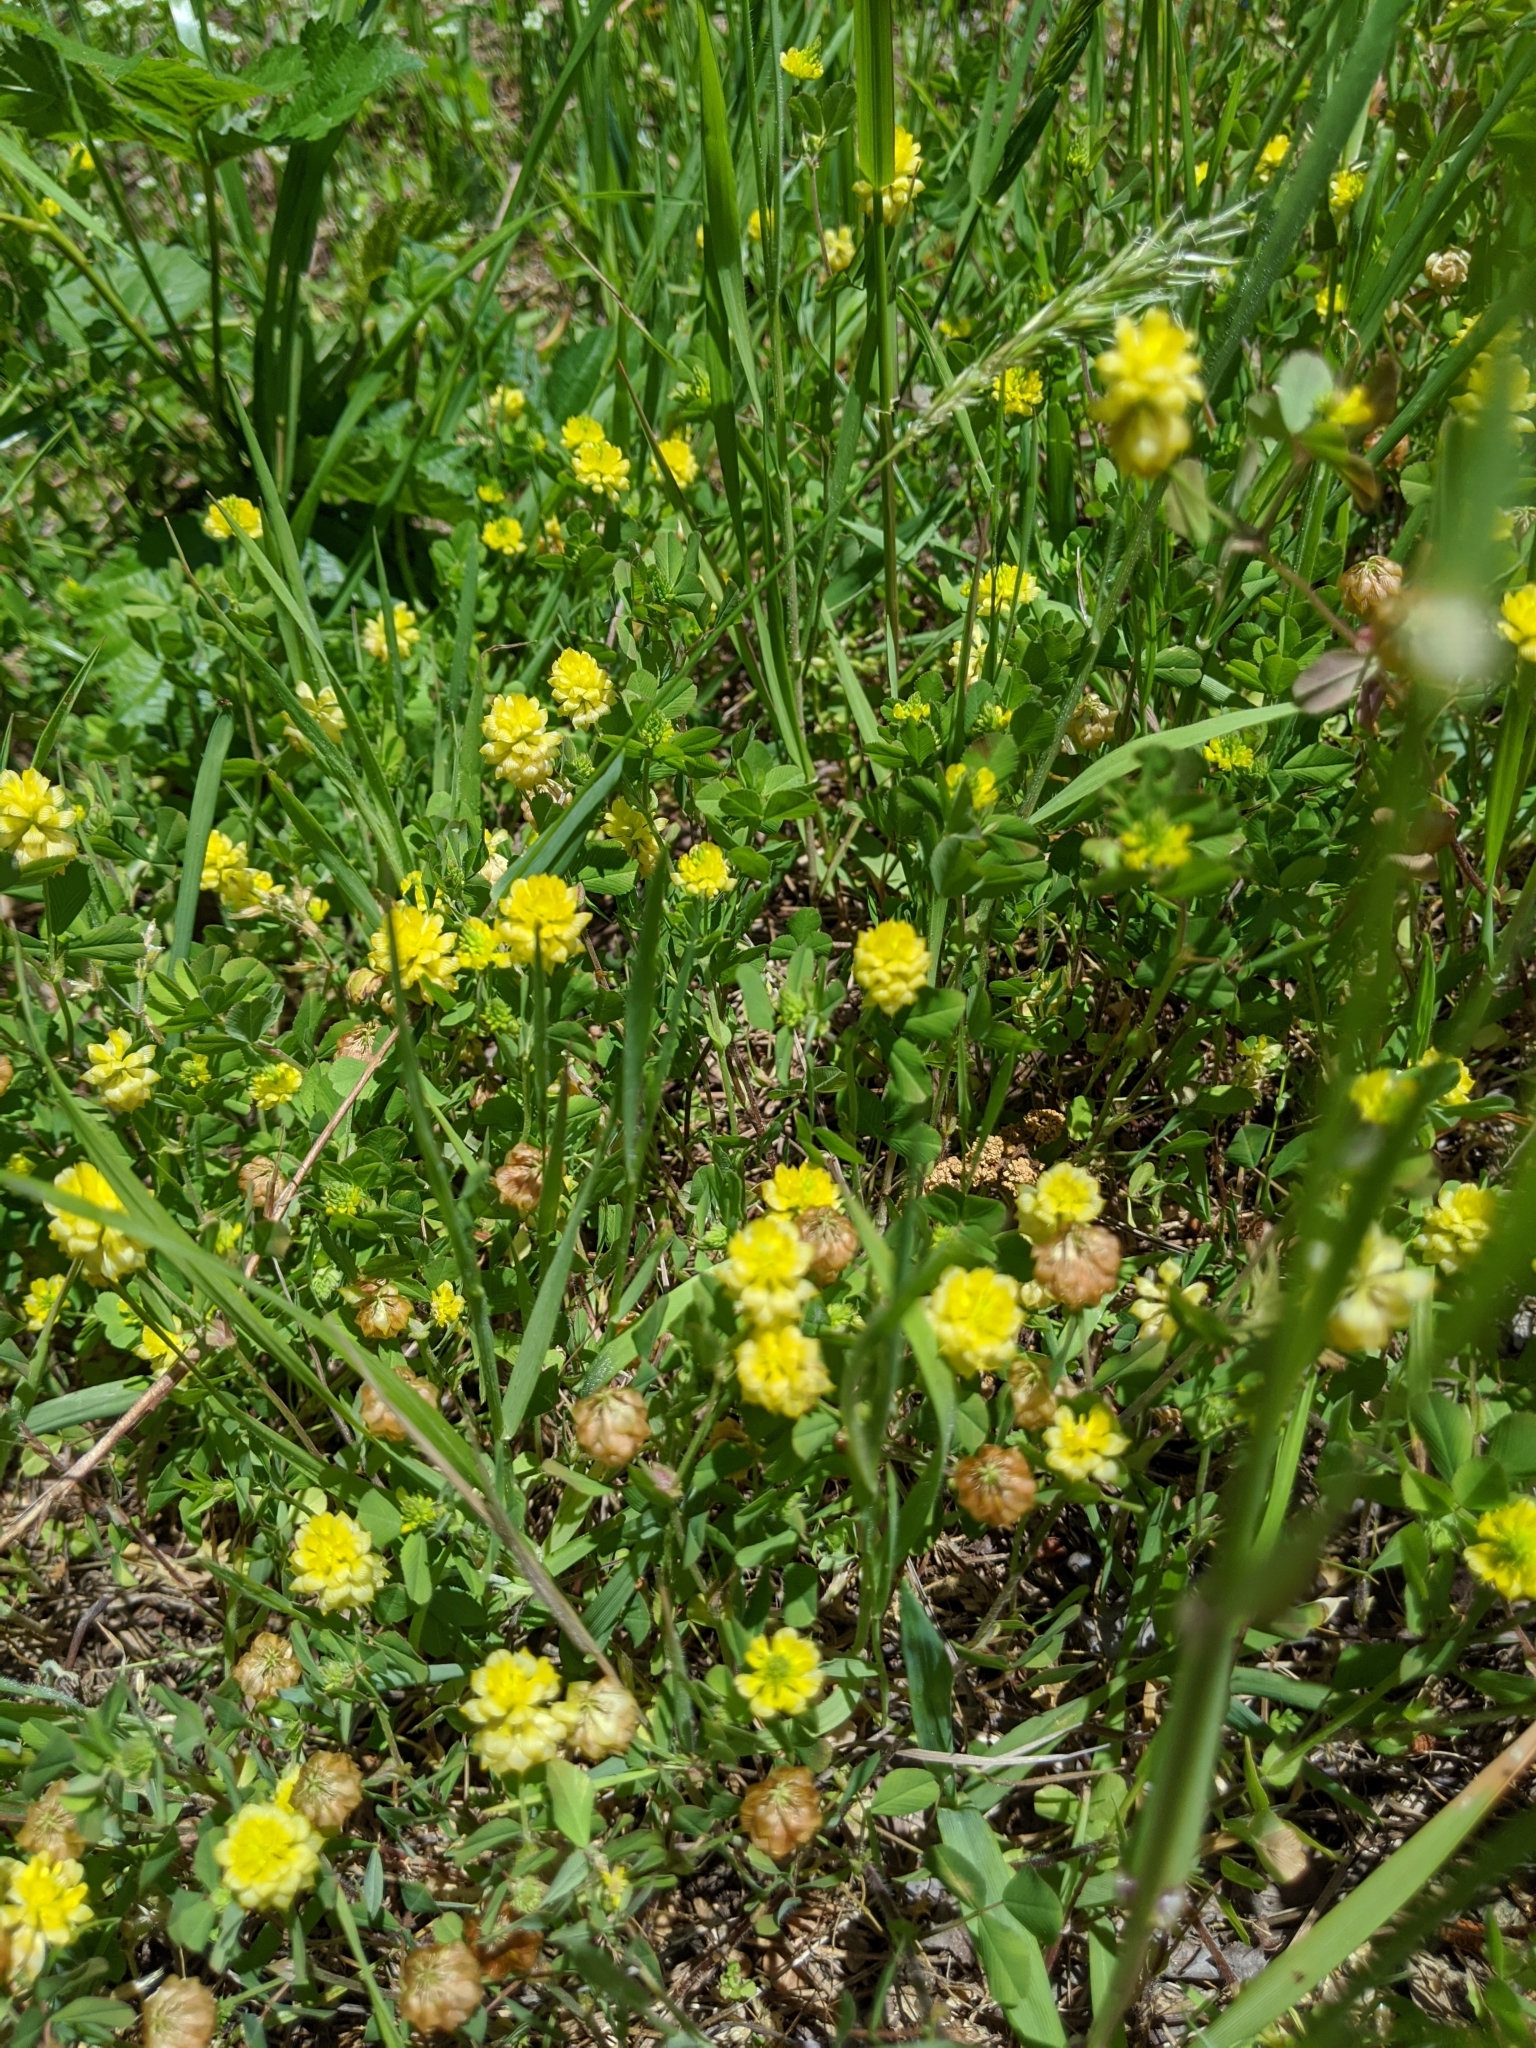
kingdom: Plantae
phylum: Tracheophyta
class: Magnoliopsida
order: Fabales
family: Fabaceae
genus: Trifolium
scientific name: Trifolium campestre
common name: Field clover
